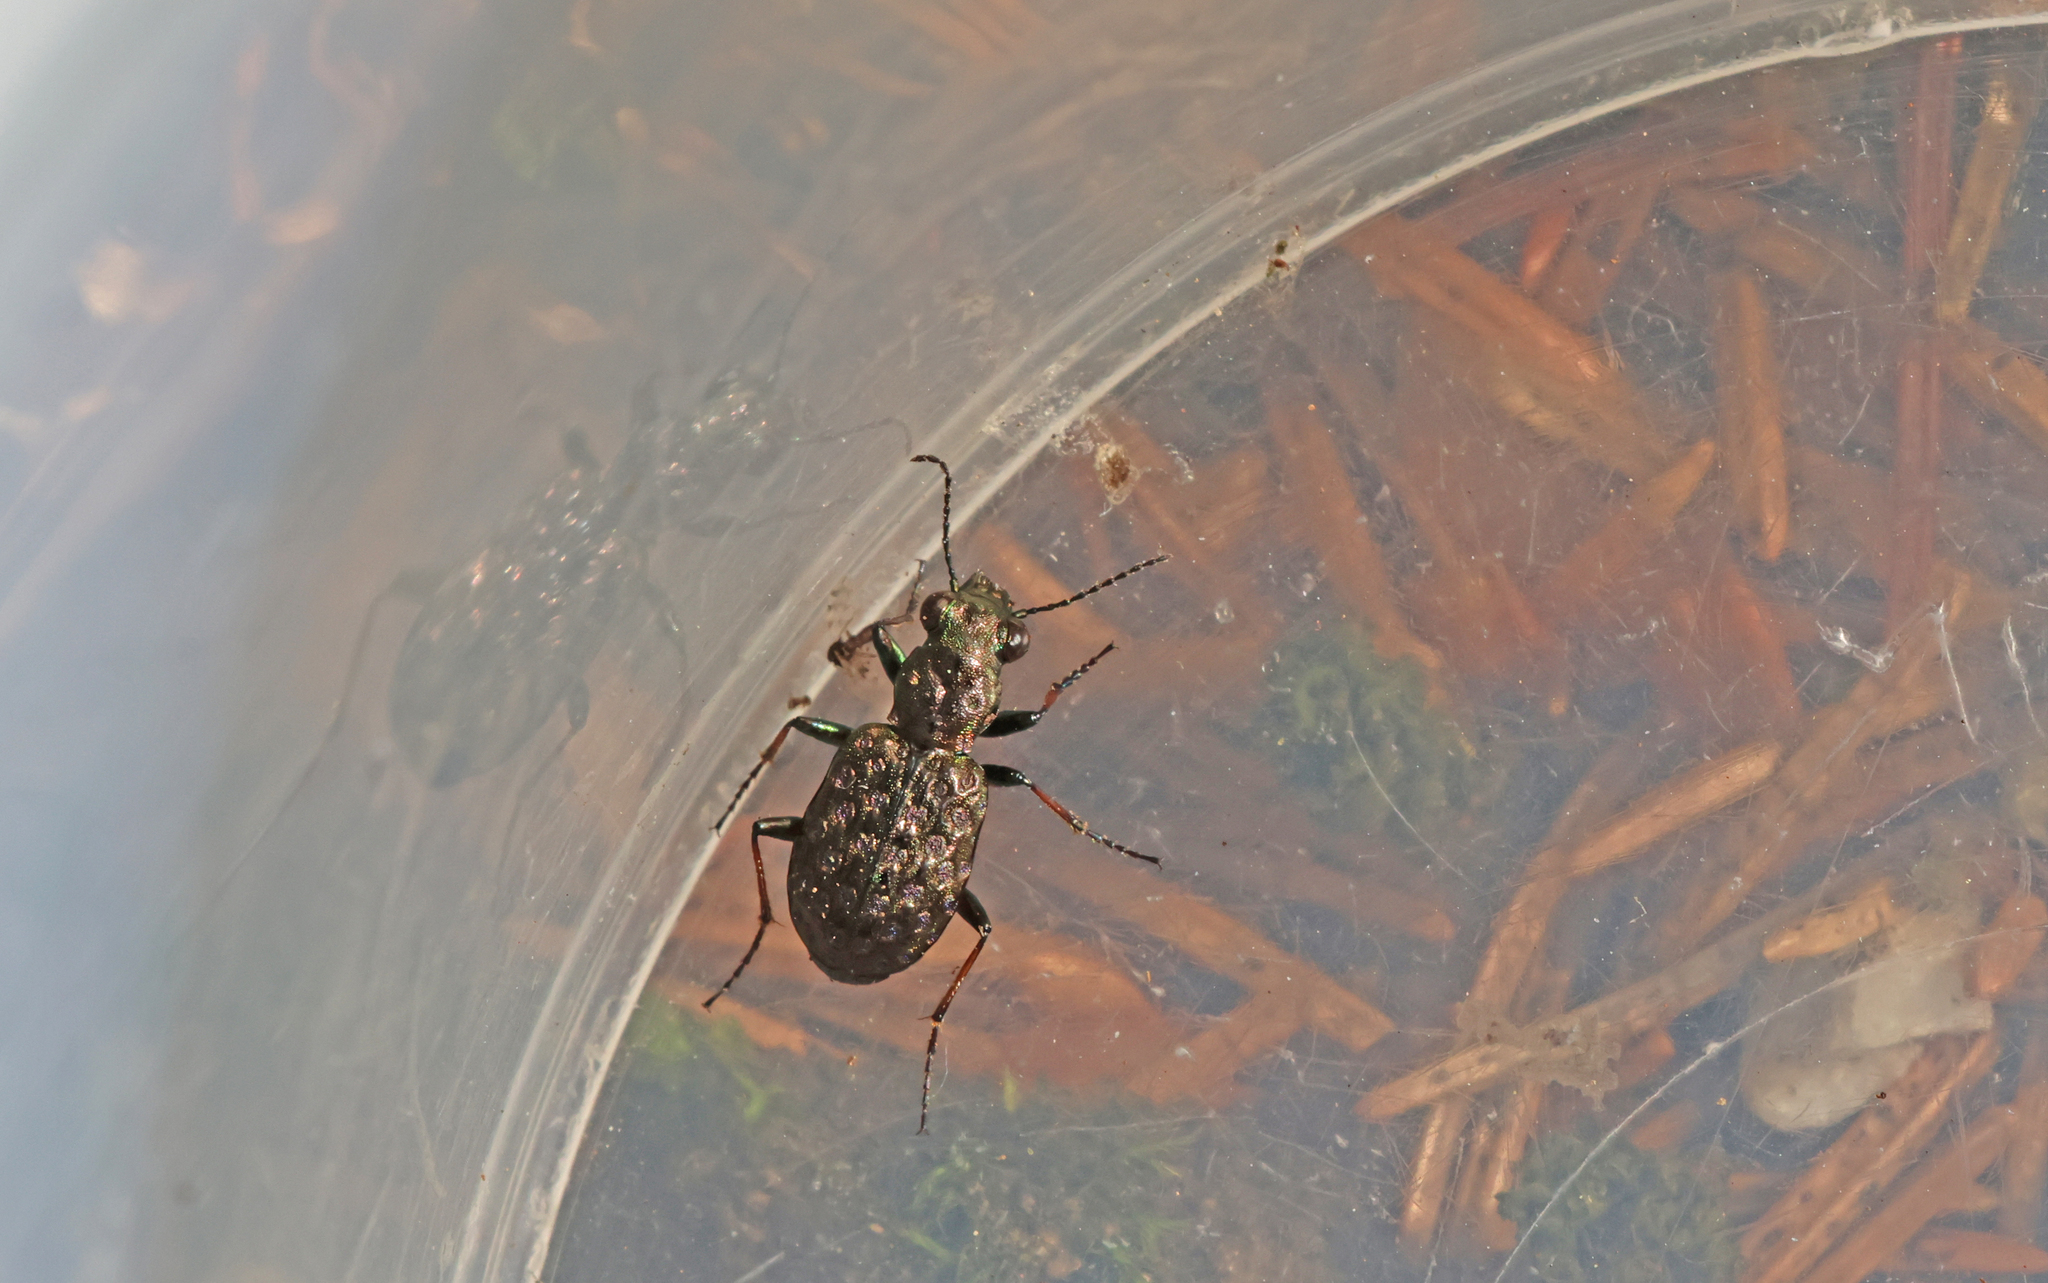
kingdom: Animalia
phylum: Arthropoda
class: Insecta
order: Coleoptera
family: Carabidae
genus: Elaphrus
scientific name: Elaphrus cupreus
